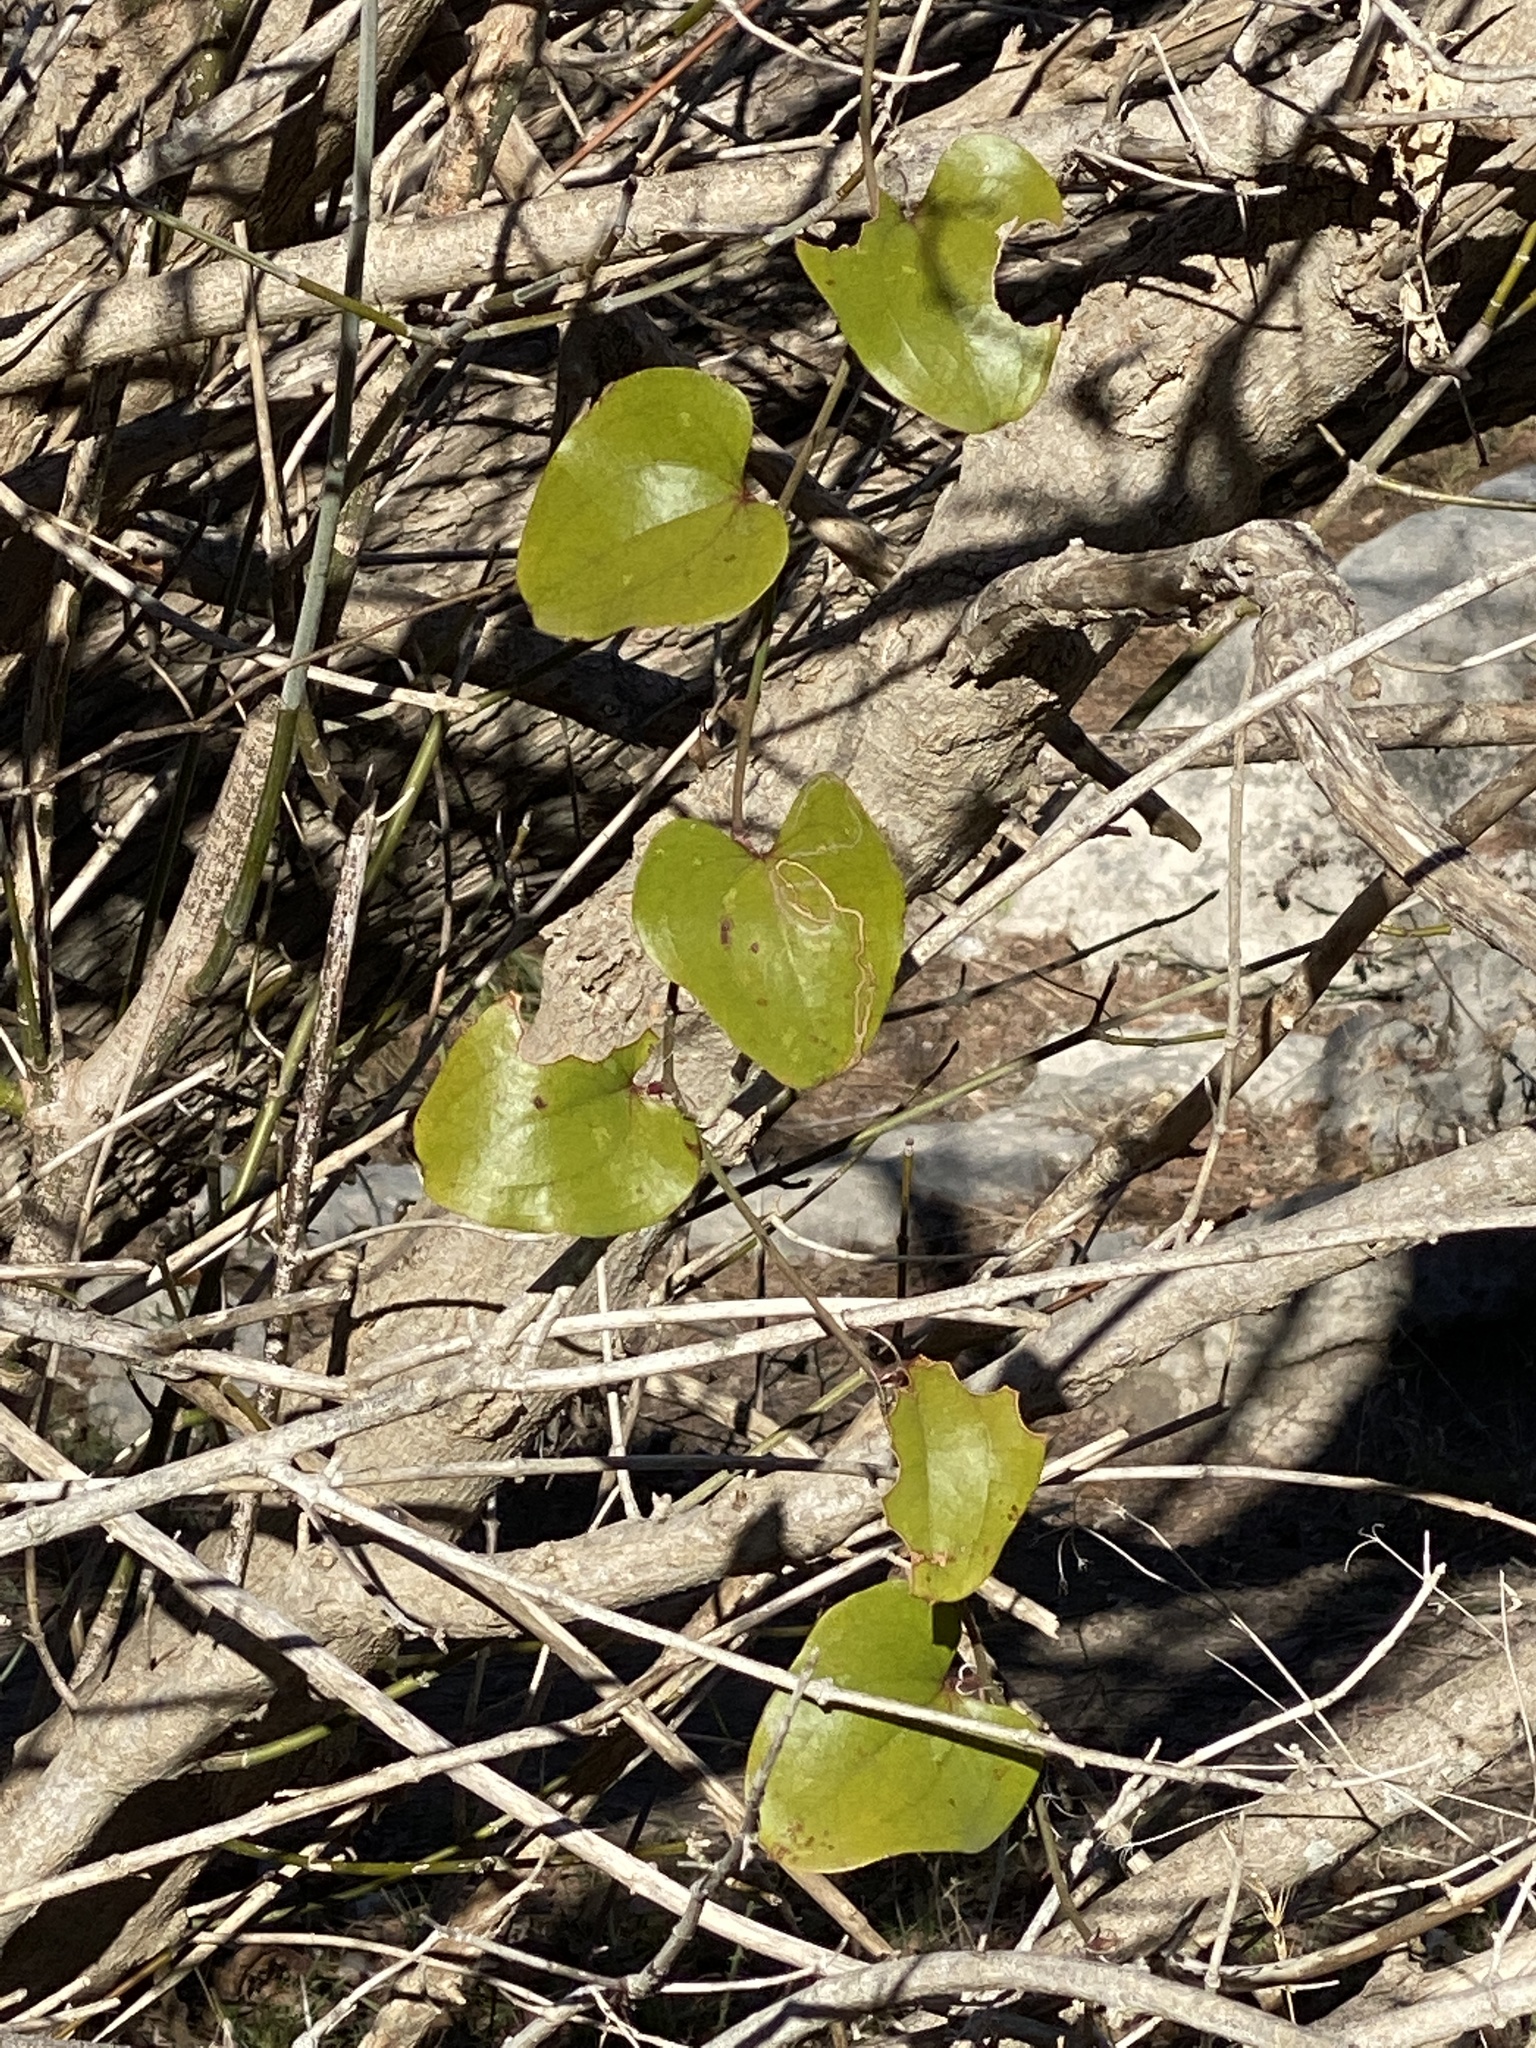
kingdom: Plantae
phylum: Tracheophyta
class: Liliopsida
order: Liliales
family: Smilacaceae
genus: Smilax
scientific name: Smilax bona-nox
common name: Catbrier
